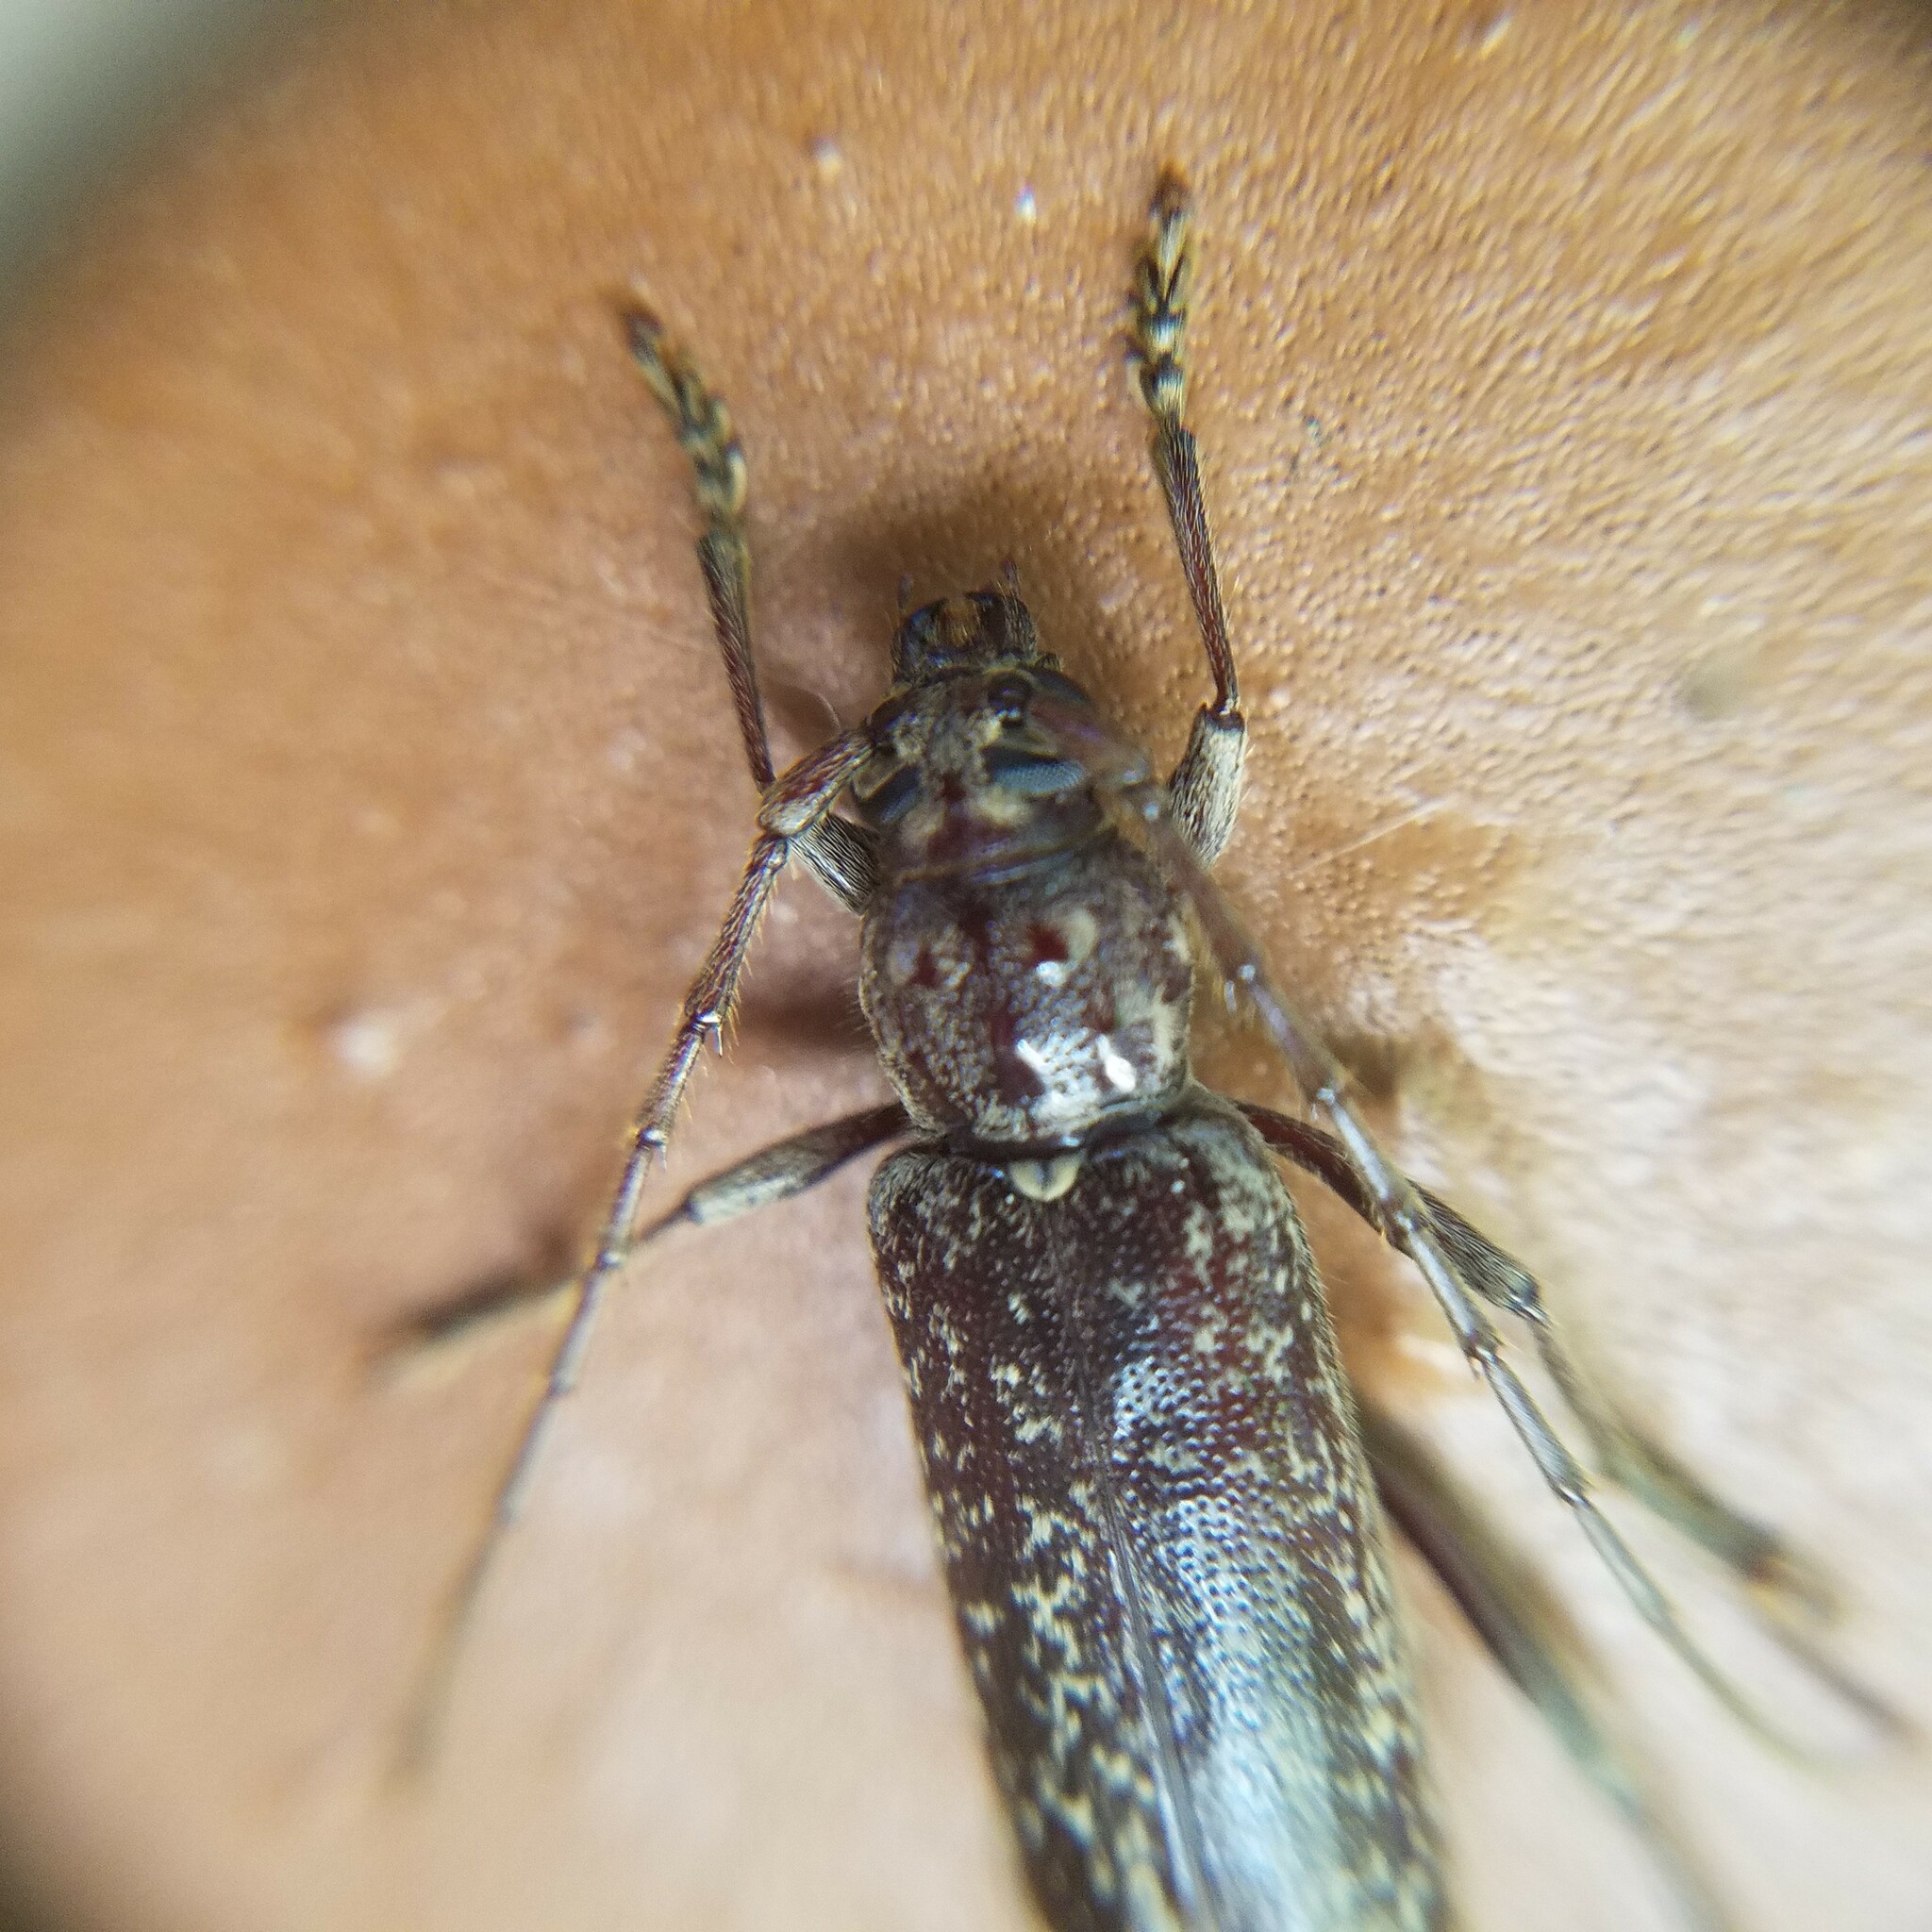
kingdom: Animalia
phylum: Arthropoda
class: Insecta
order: Coleoptera
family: Cerambycidae
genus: Parelaphidion
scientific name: Parelaphidion aspersum
